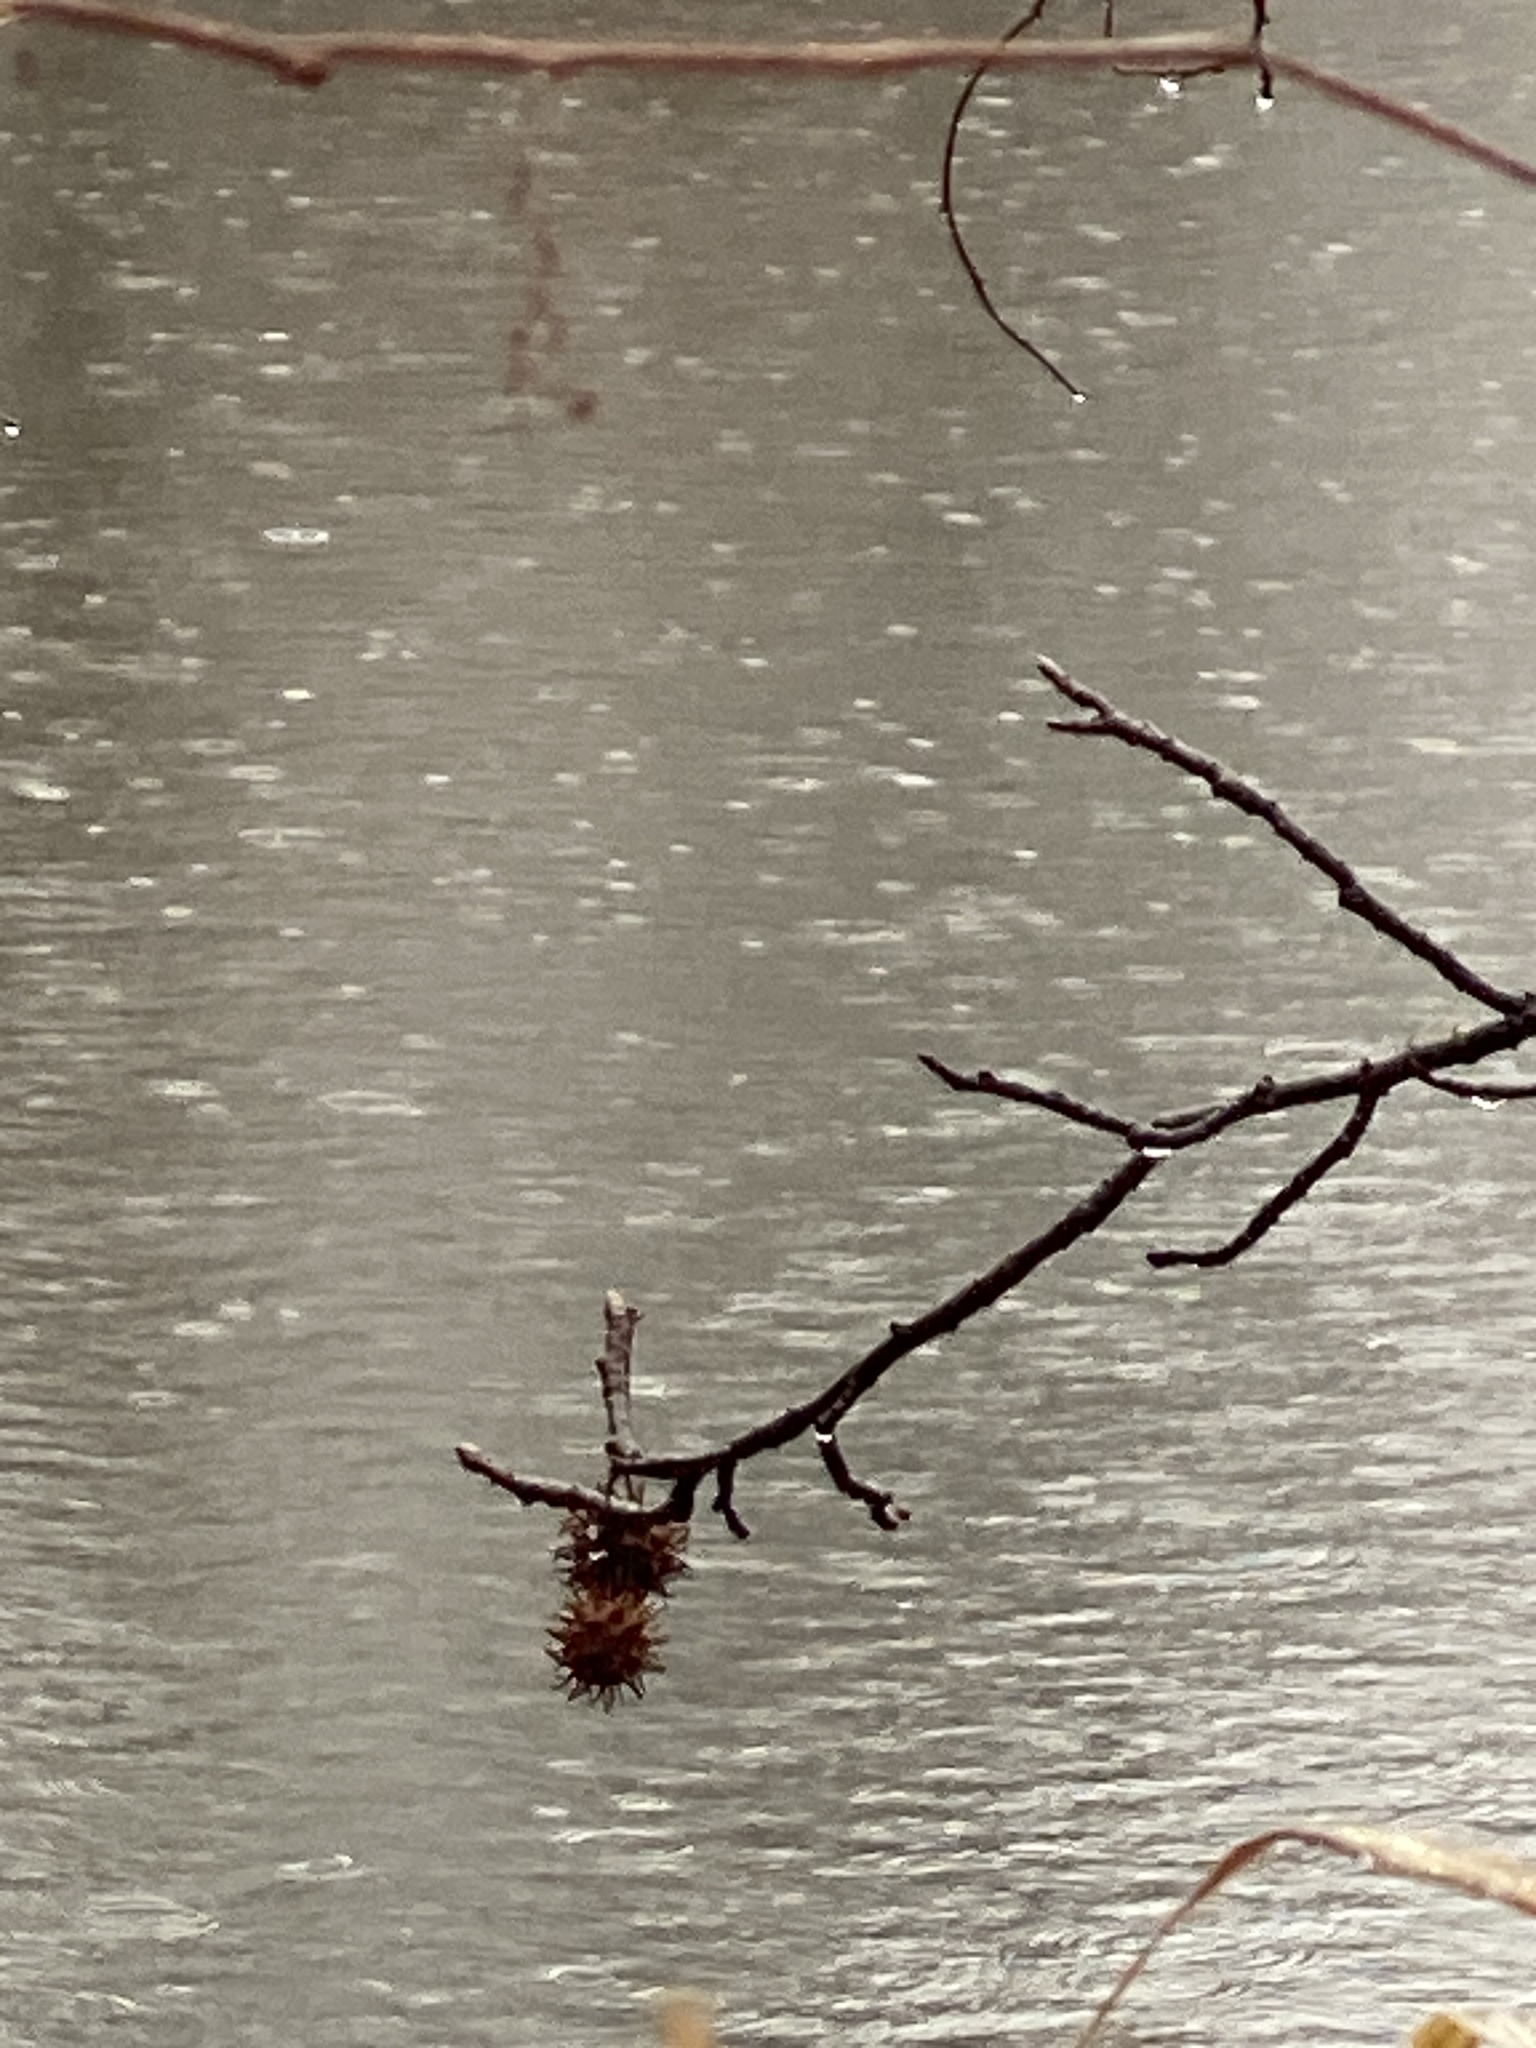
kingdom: Plantae
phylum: Tracheophyta
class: Magnoliopsida
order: Saxifragales
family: Altingiaceae
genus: Liquidambar
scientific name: Liquidambar styraciflua
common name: Sweet gum
